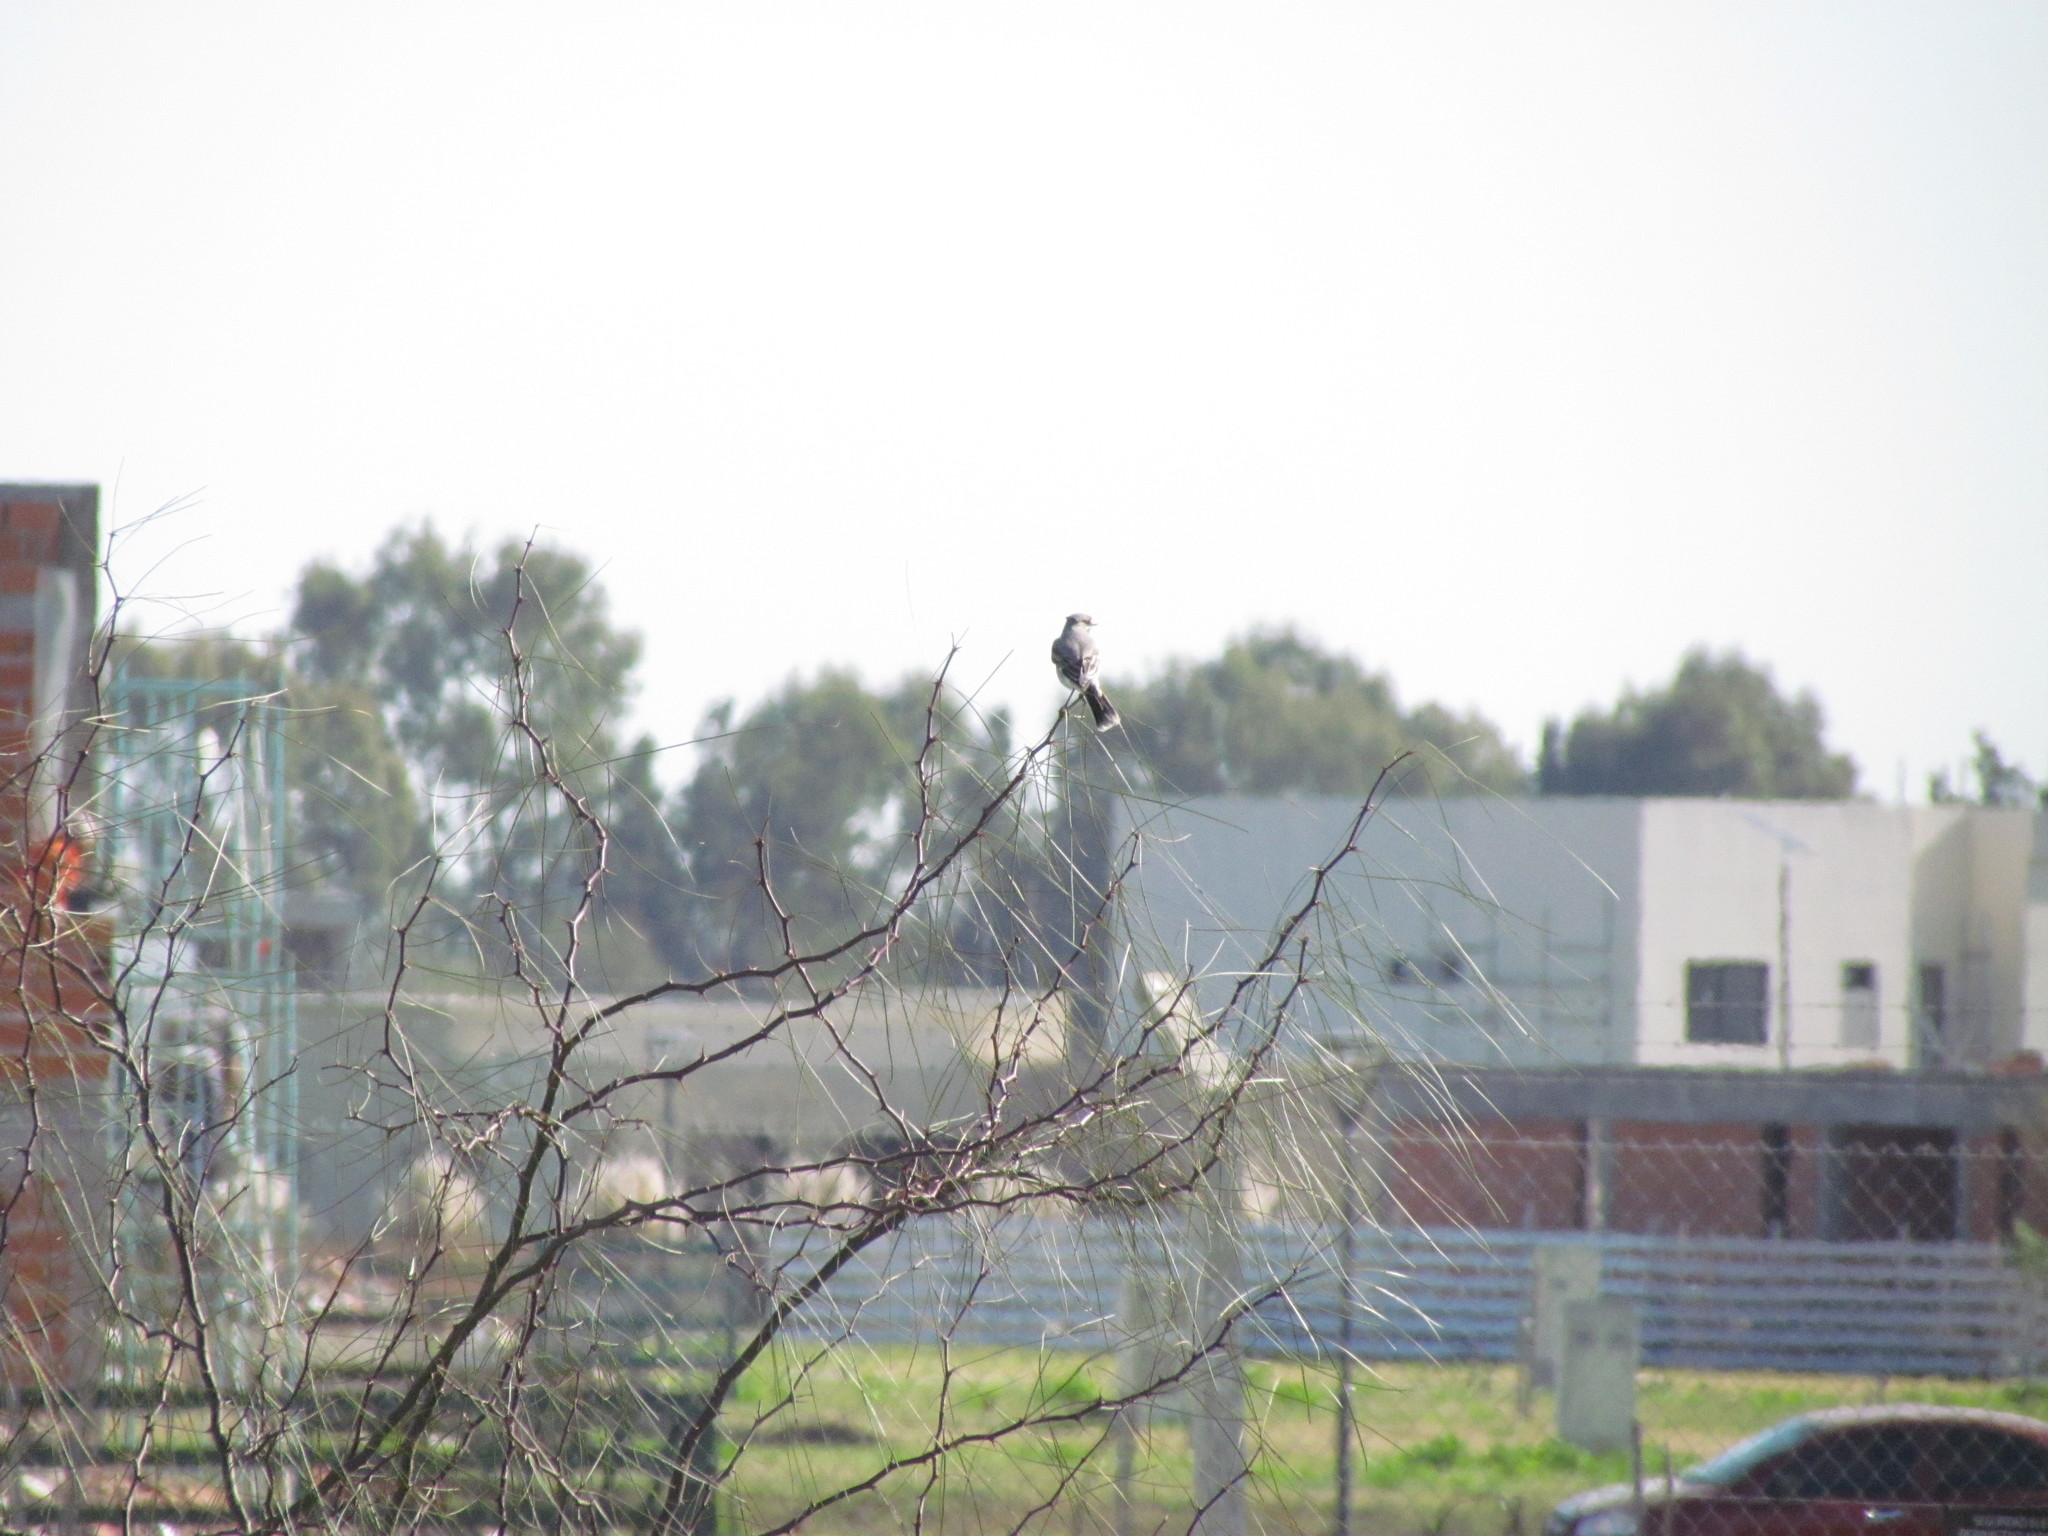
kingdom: Animalia
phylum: Chordata
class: Aves
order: Passeriformes
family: Tyrannidae
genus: Xolmis
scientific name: Xolmis cinereus
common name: Grey monjita
